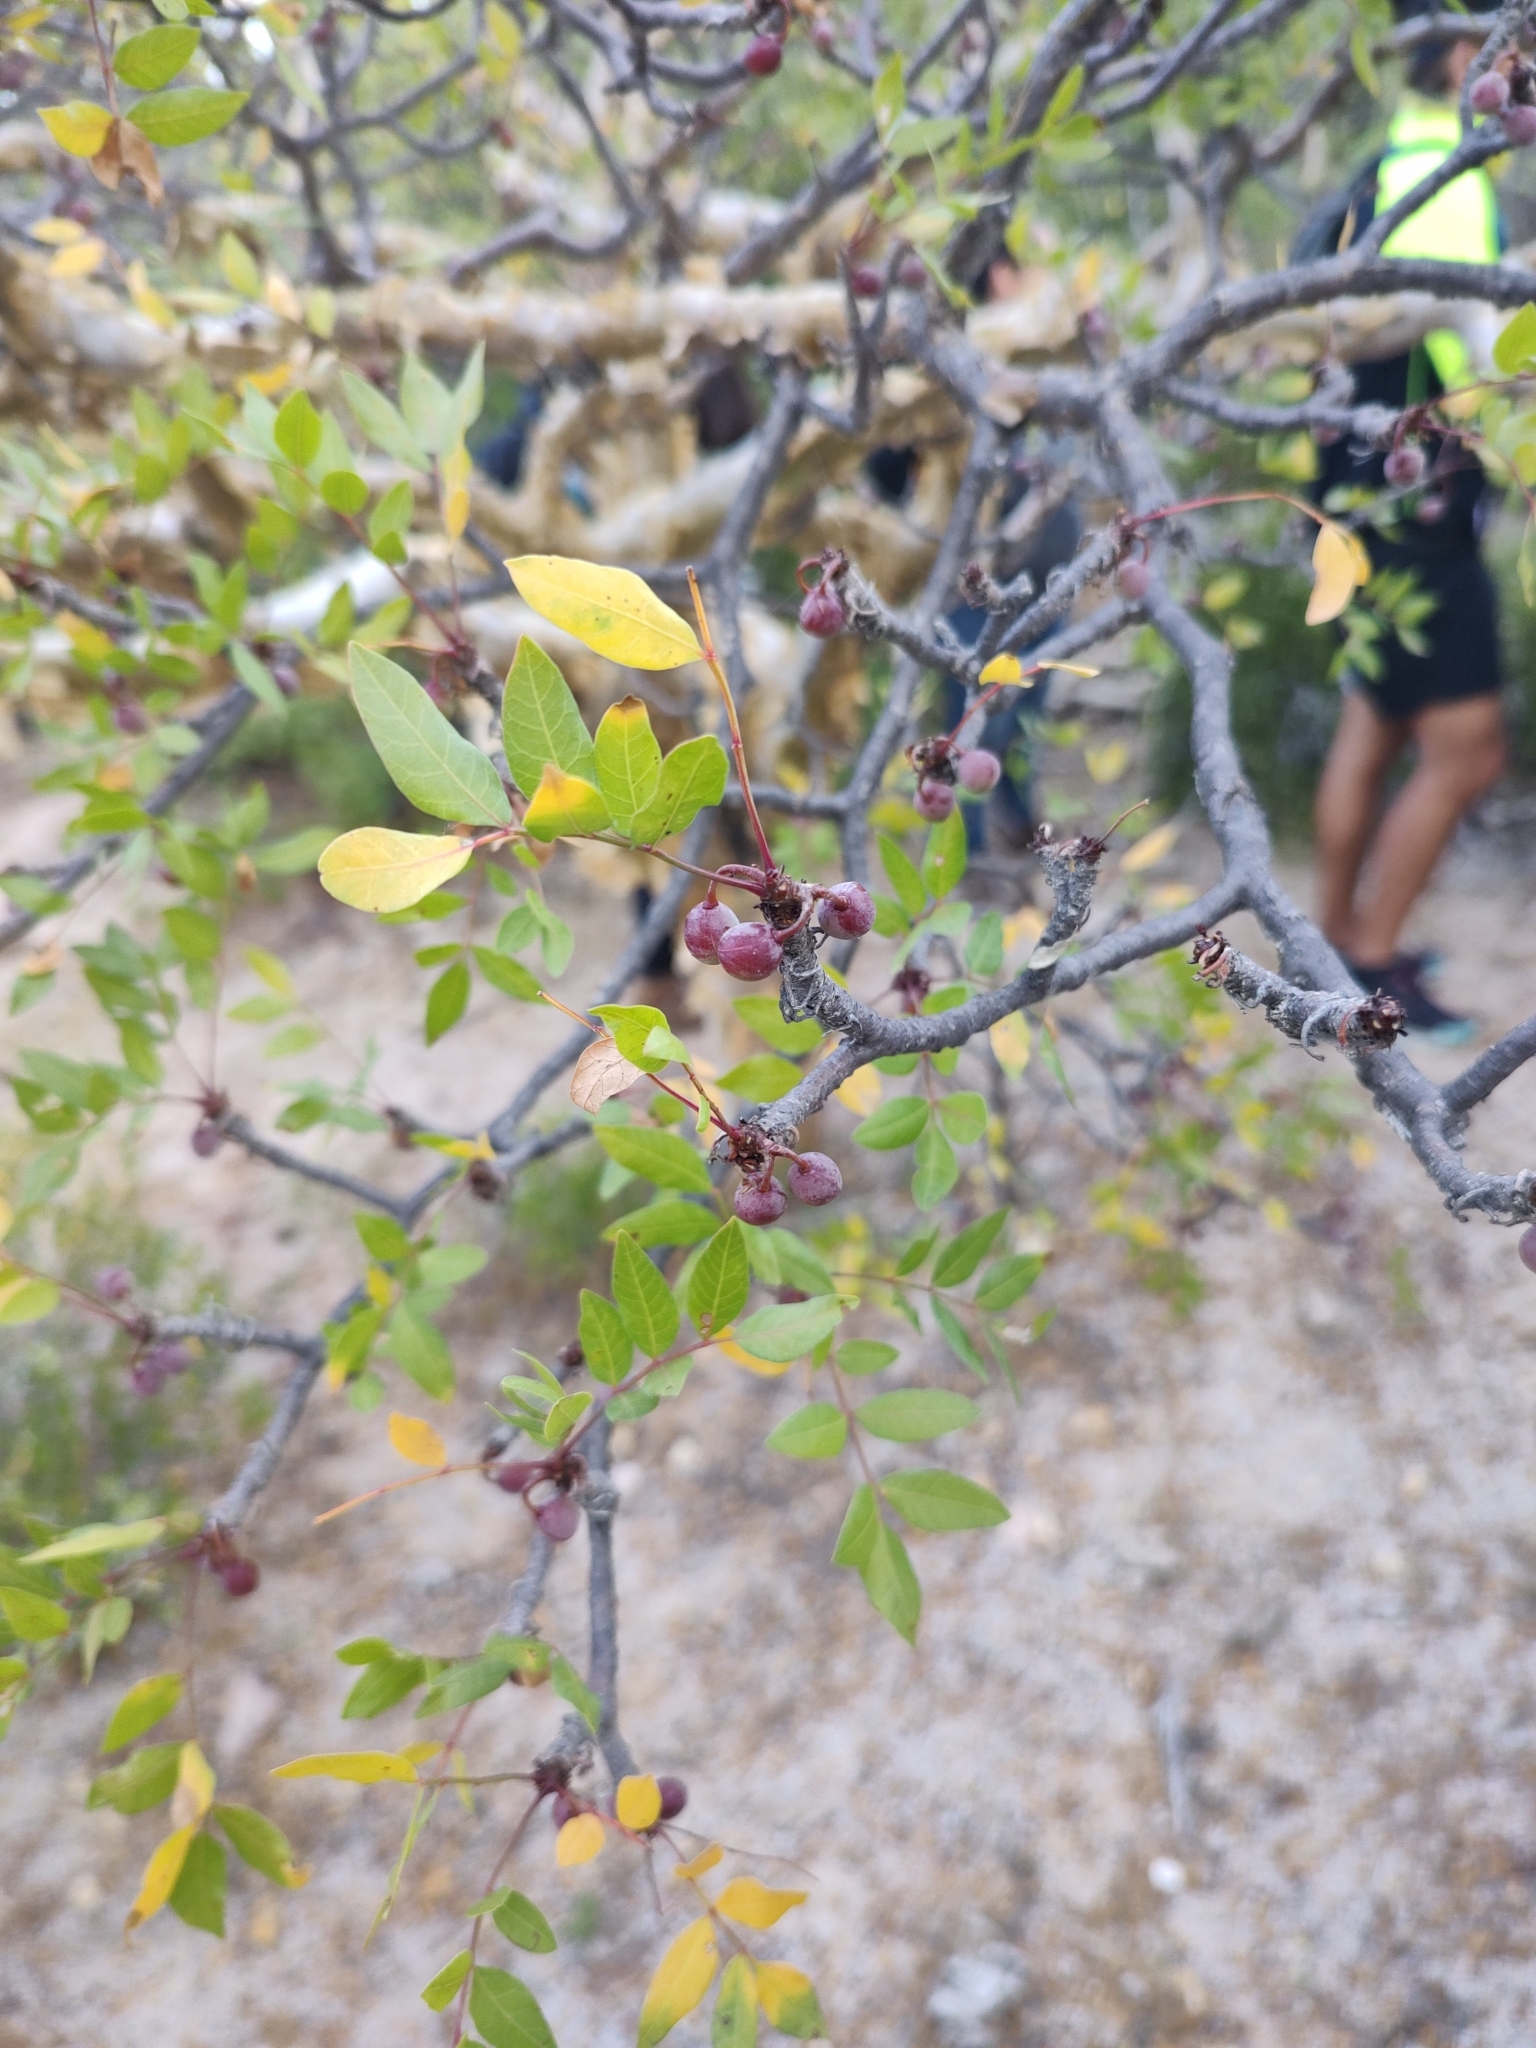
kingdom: Plantae
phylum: Tracheophyta
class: Magnoliopsida
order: Sapindales
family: Burseraceae
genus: Bursera
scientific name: Bursera fagaroides
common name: Elephant tree
